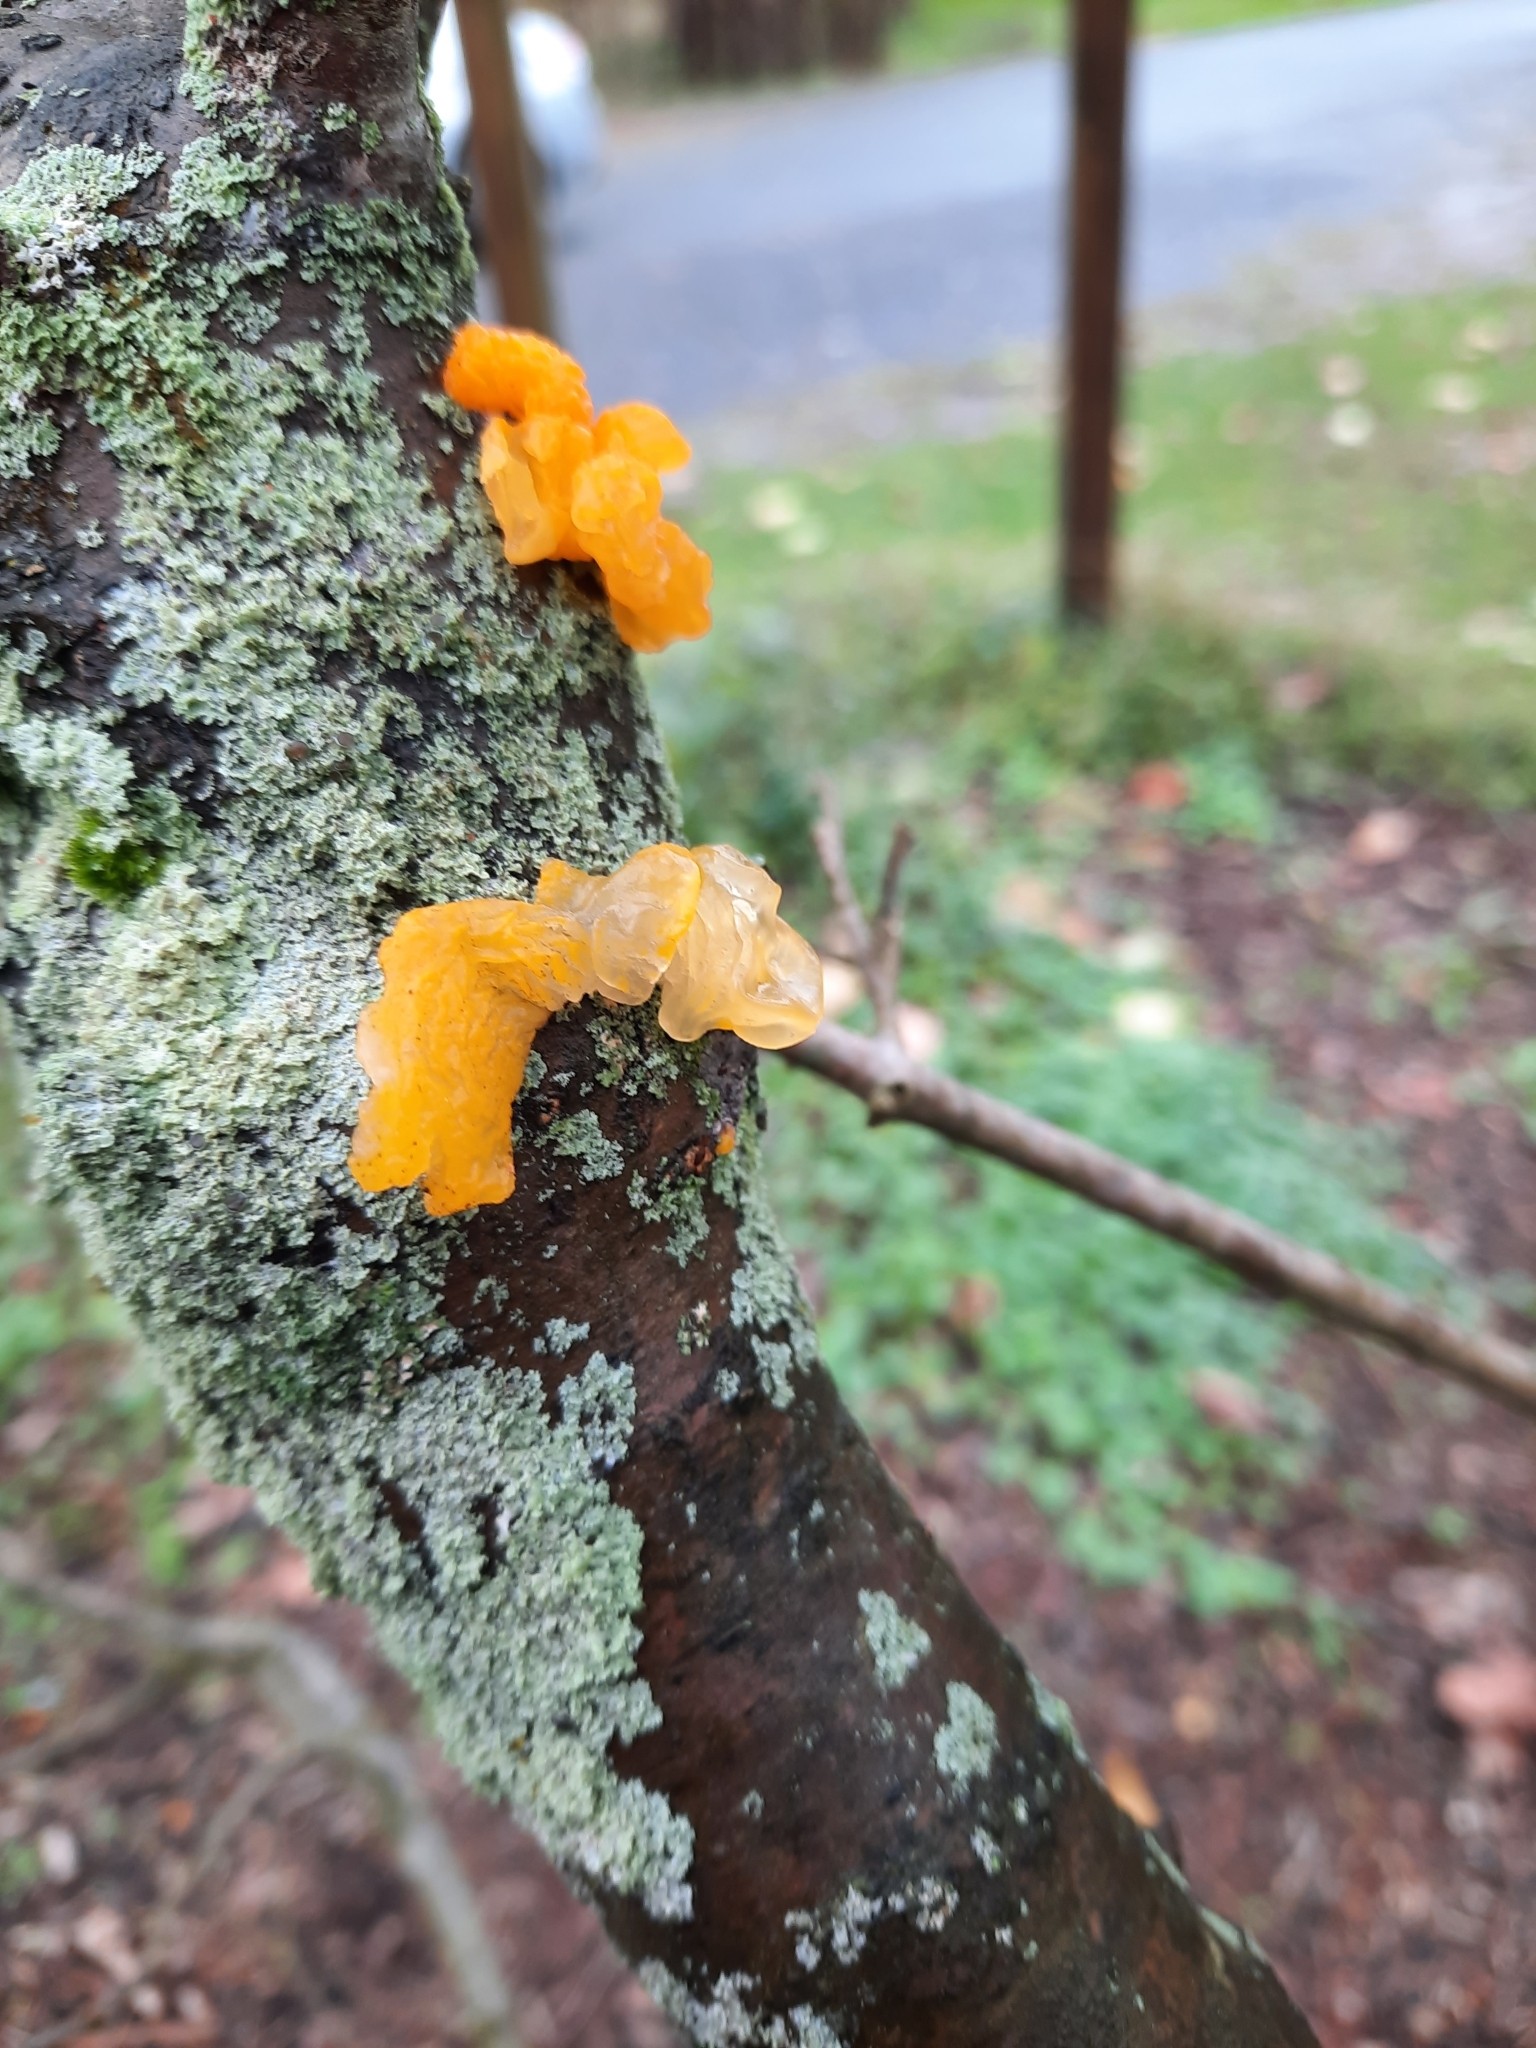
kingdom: Fungi
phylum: Basidiomycota
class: Tremellomycetes
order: Tremellales
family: Tremellaceae
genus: Tremella
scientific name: Tremella mesenterica
